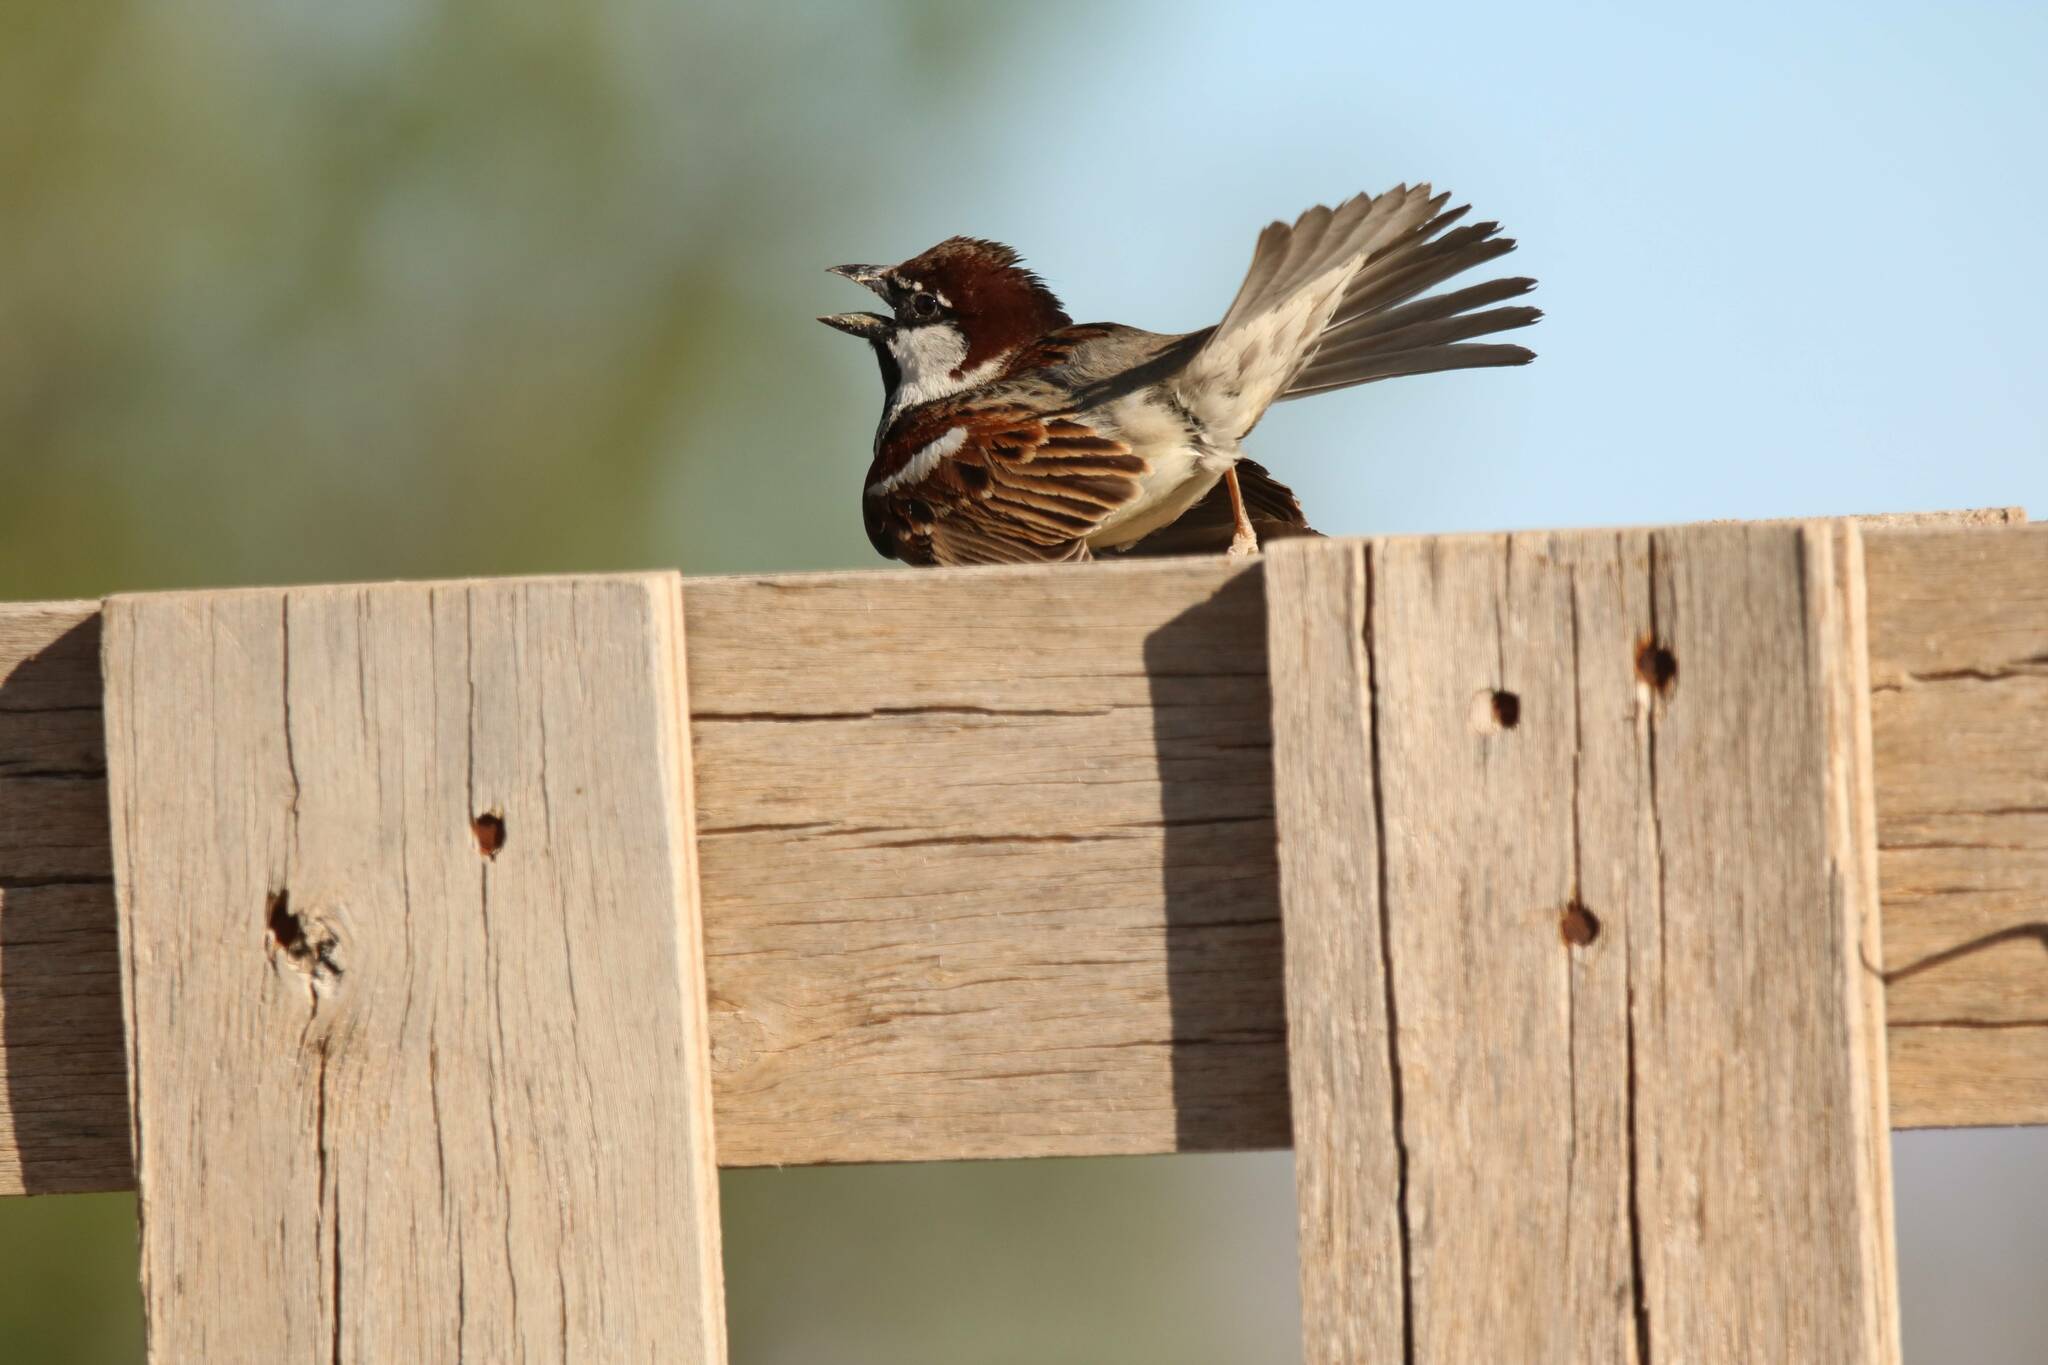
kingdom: Animalia
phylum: Chordata
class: Aves
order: Passeriformes
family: Passeridae
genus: Passer
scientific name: Passer hispaniolensis
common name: Spanish sparrow
